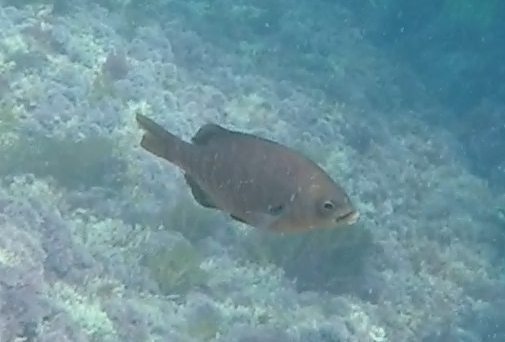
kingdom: Animalia
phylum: Chordata
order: Perciformes
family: Embiotocidae
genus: Embiotoca
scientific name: Embiotoca jacksoni
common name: Black perch
